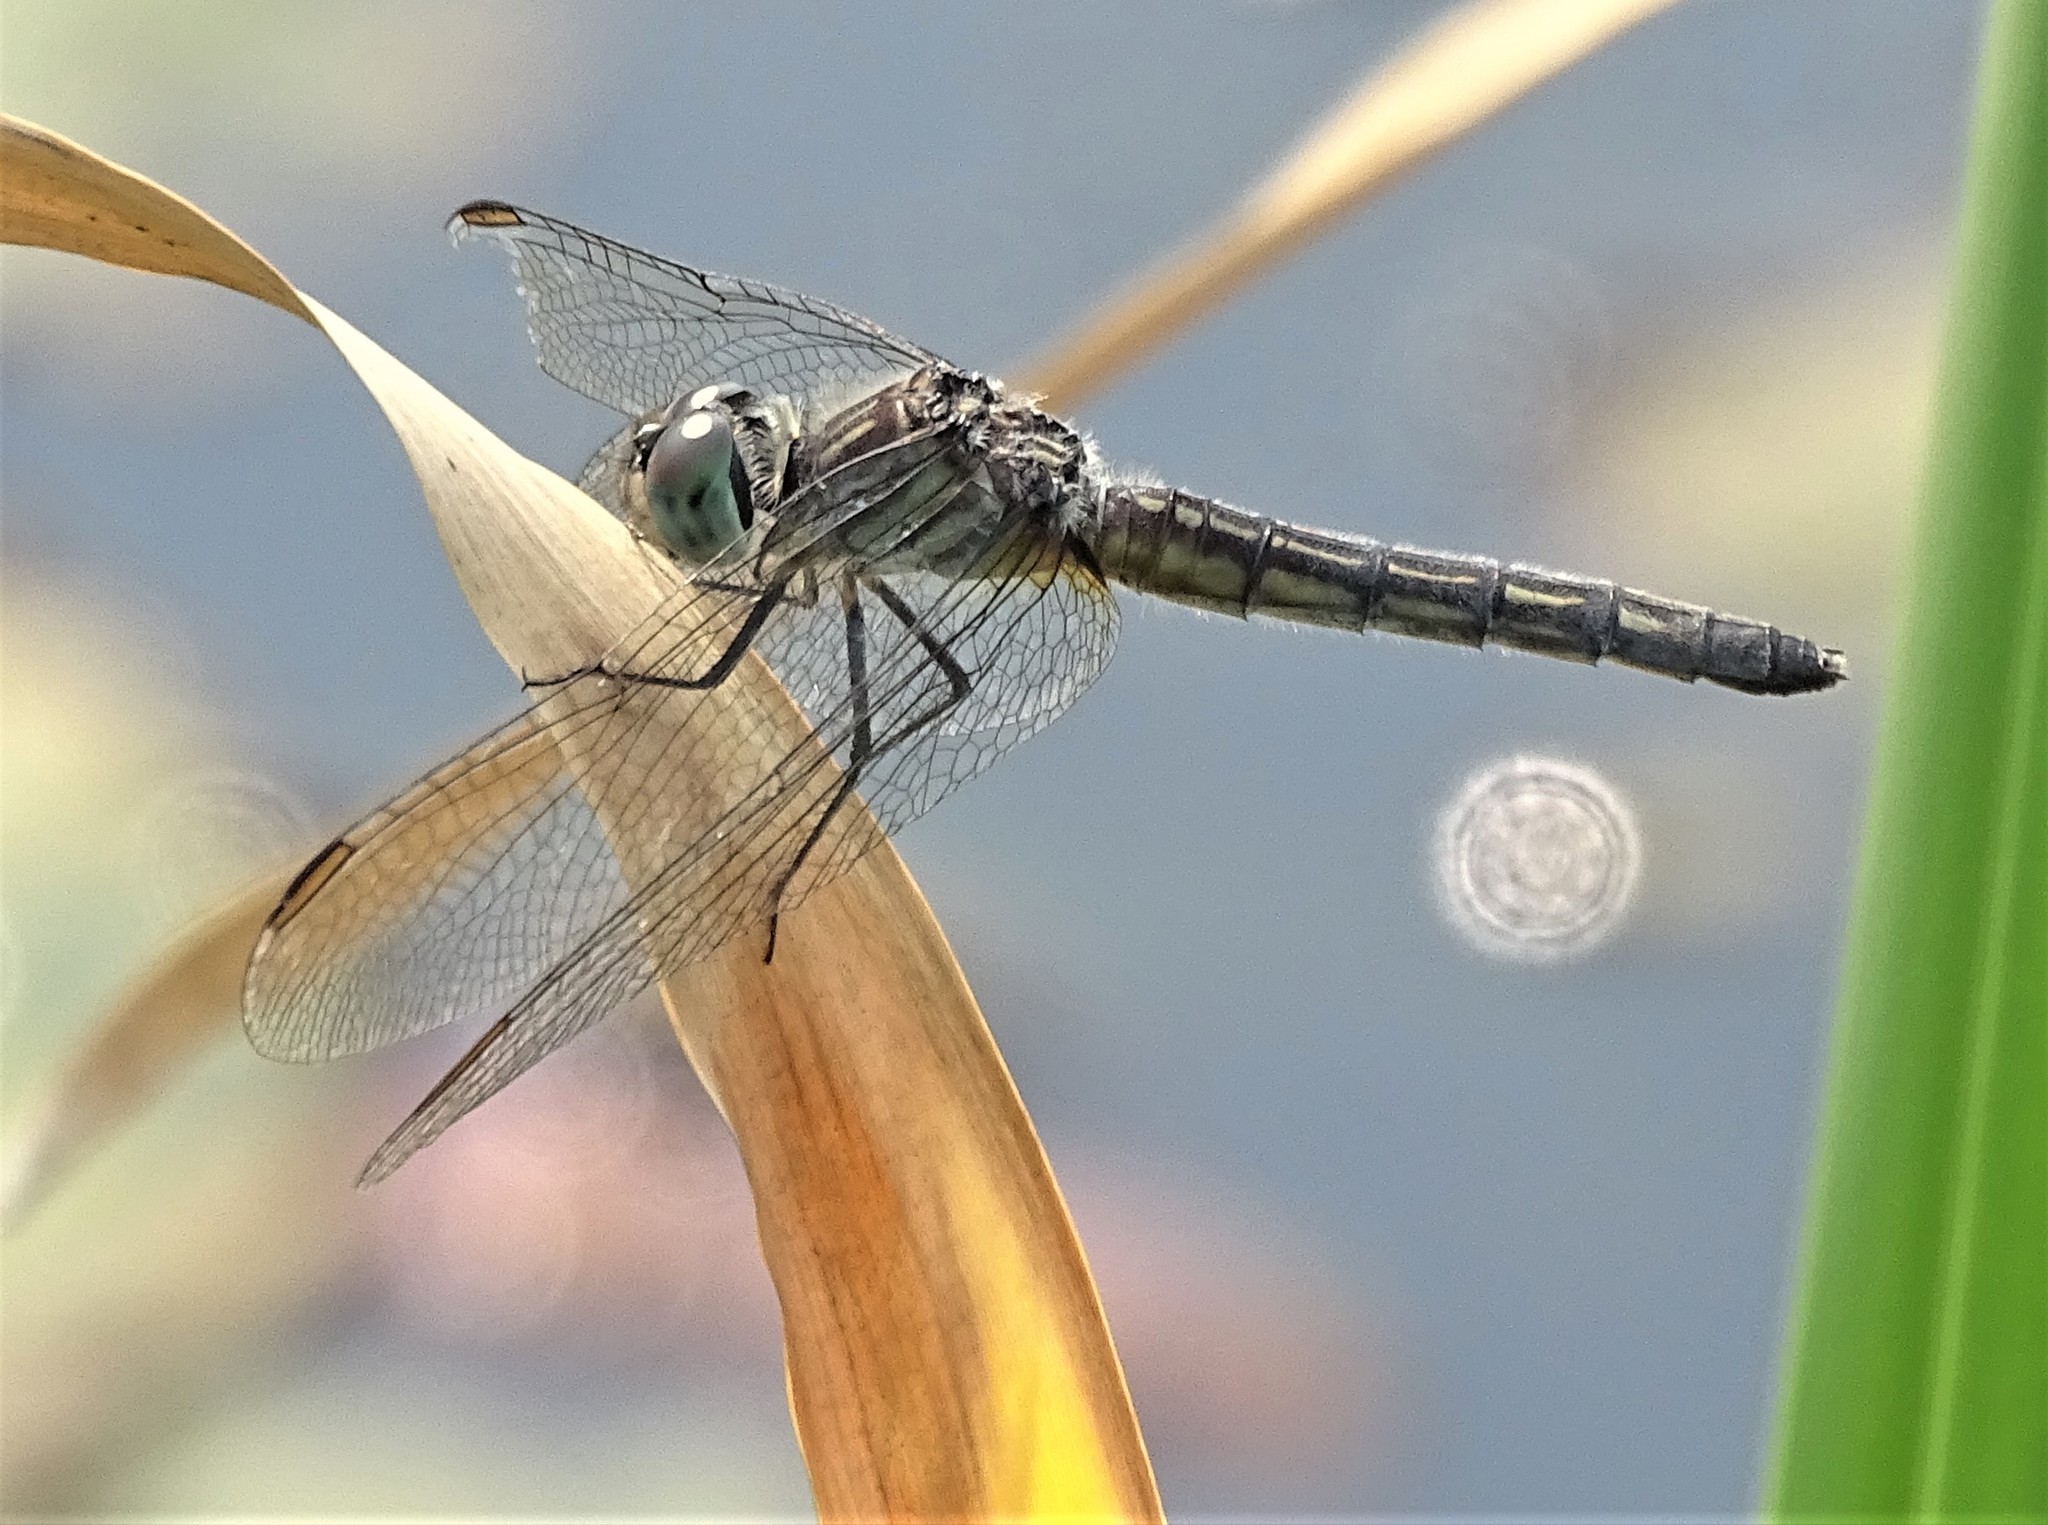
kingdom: Animalia
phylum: Arthropoda
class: Insecta
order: Odonata
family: Libellulidae
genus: Pachydiplax
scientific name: Pachydiplax longipennis
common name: Blue dasher
